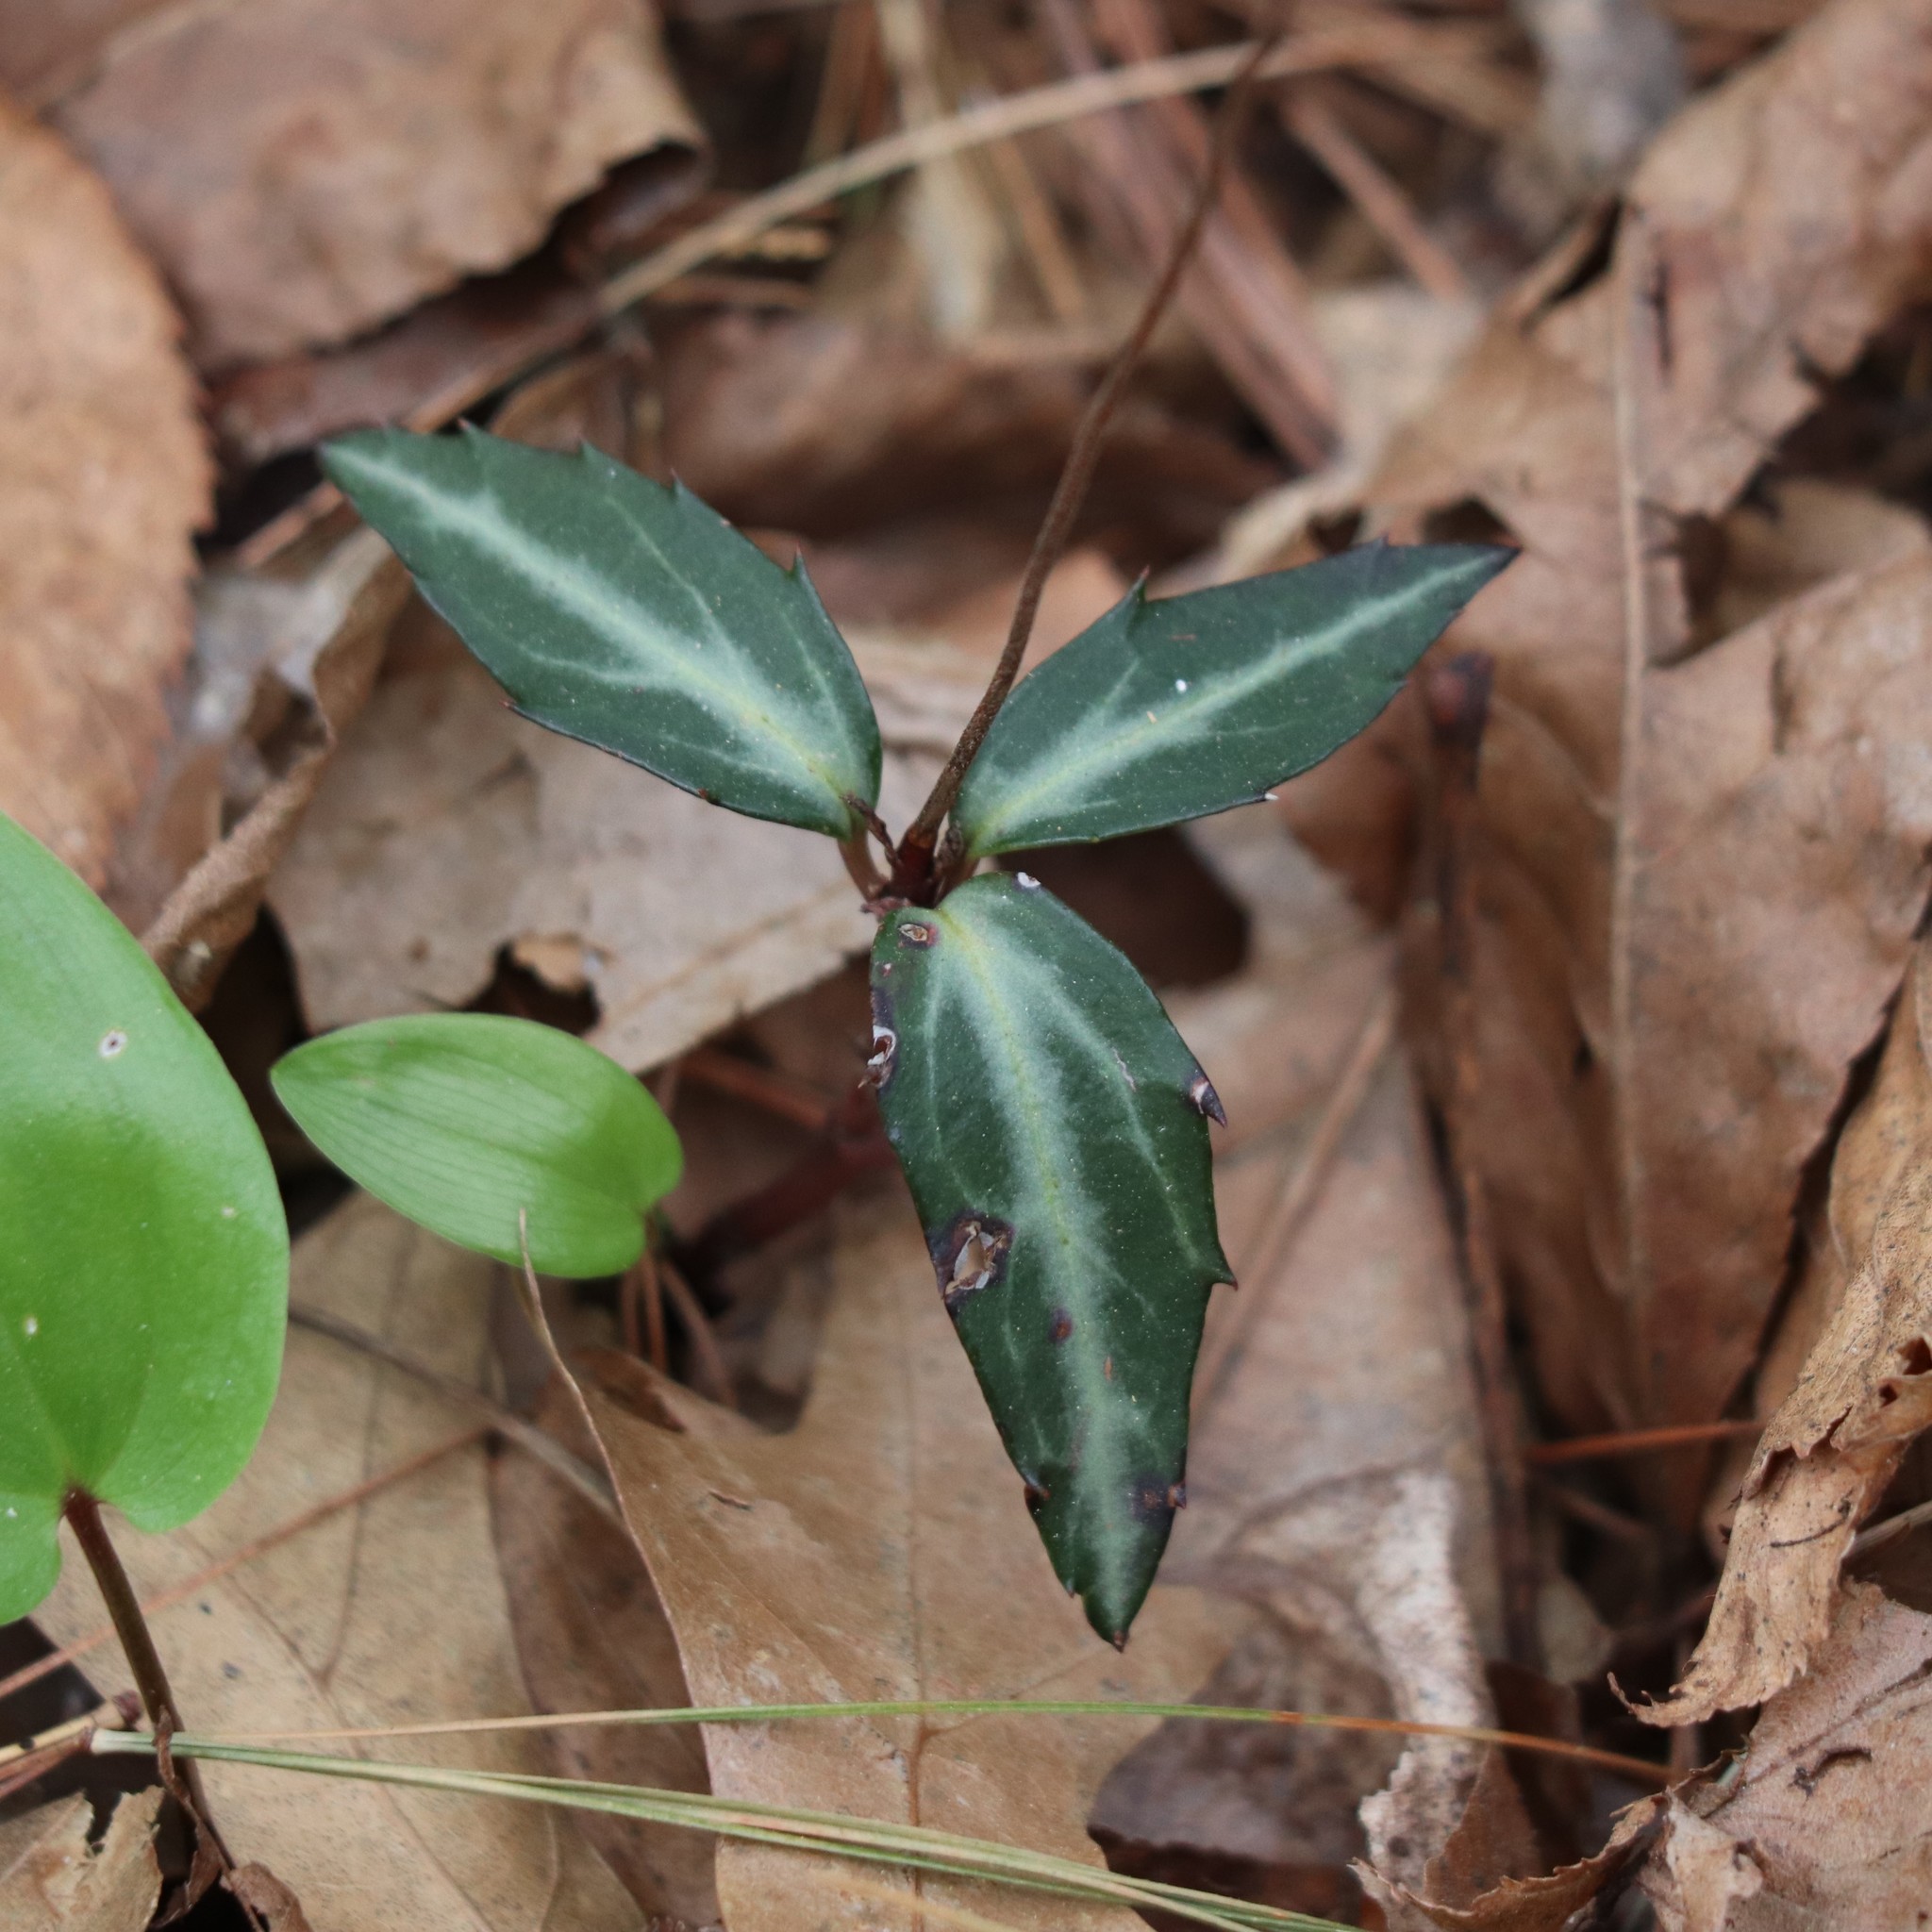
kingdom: Plantae
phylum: Tracheophyta
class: Magnoliopsida
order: Ericales
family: Ericaceae
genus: Chimaphila
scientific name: Chimaphila maculata
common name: Spotted pipsissewa
